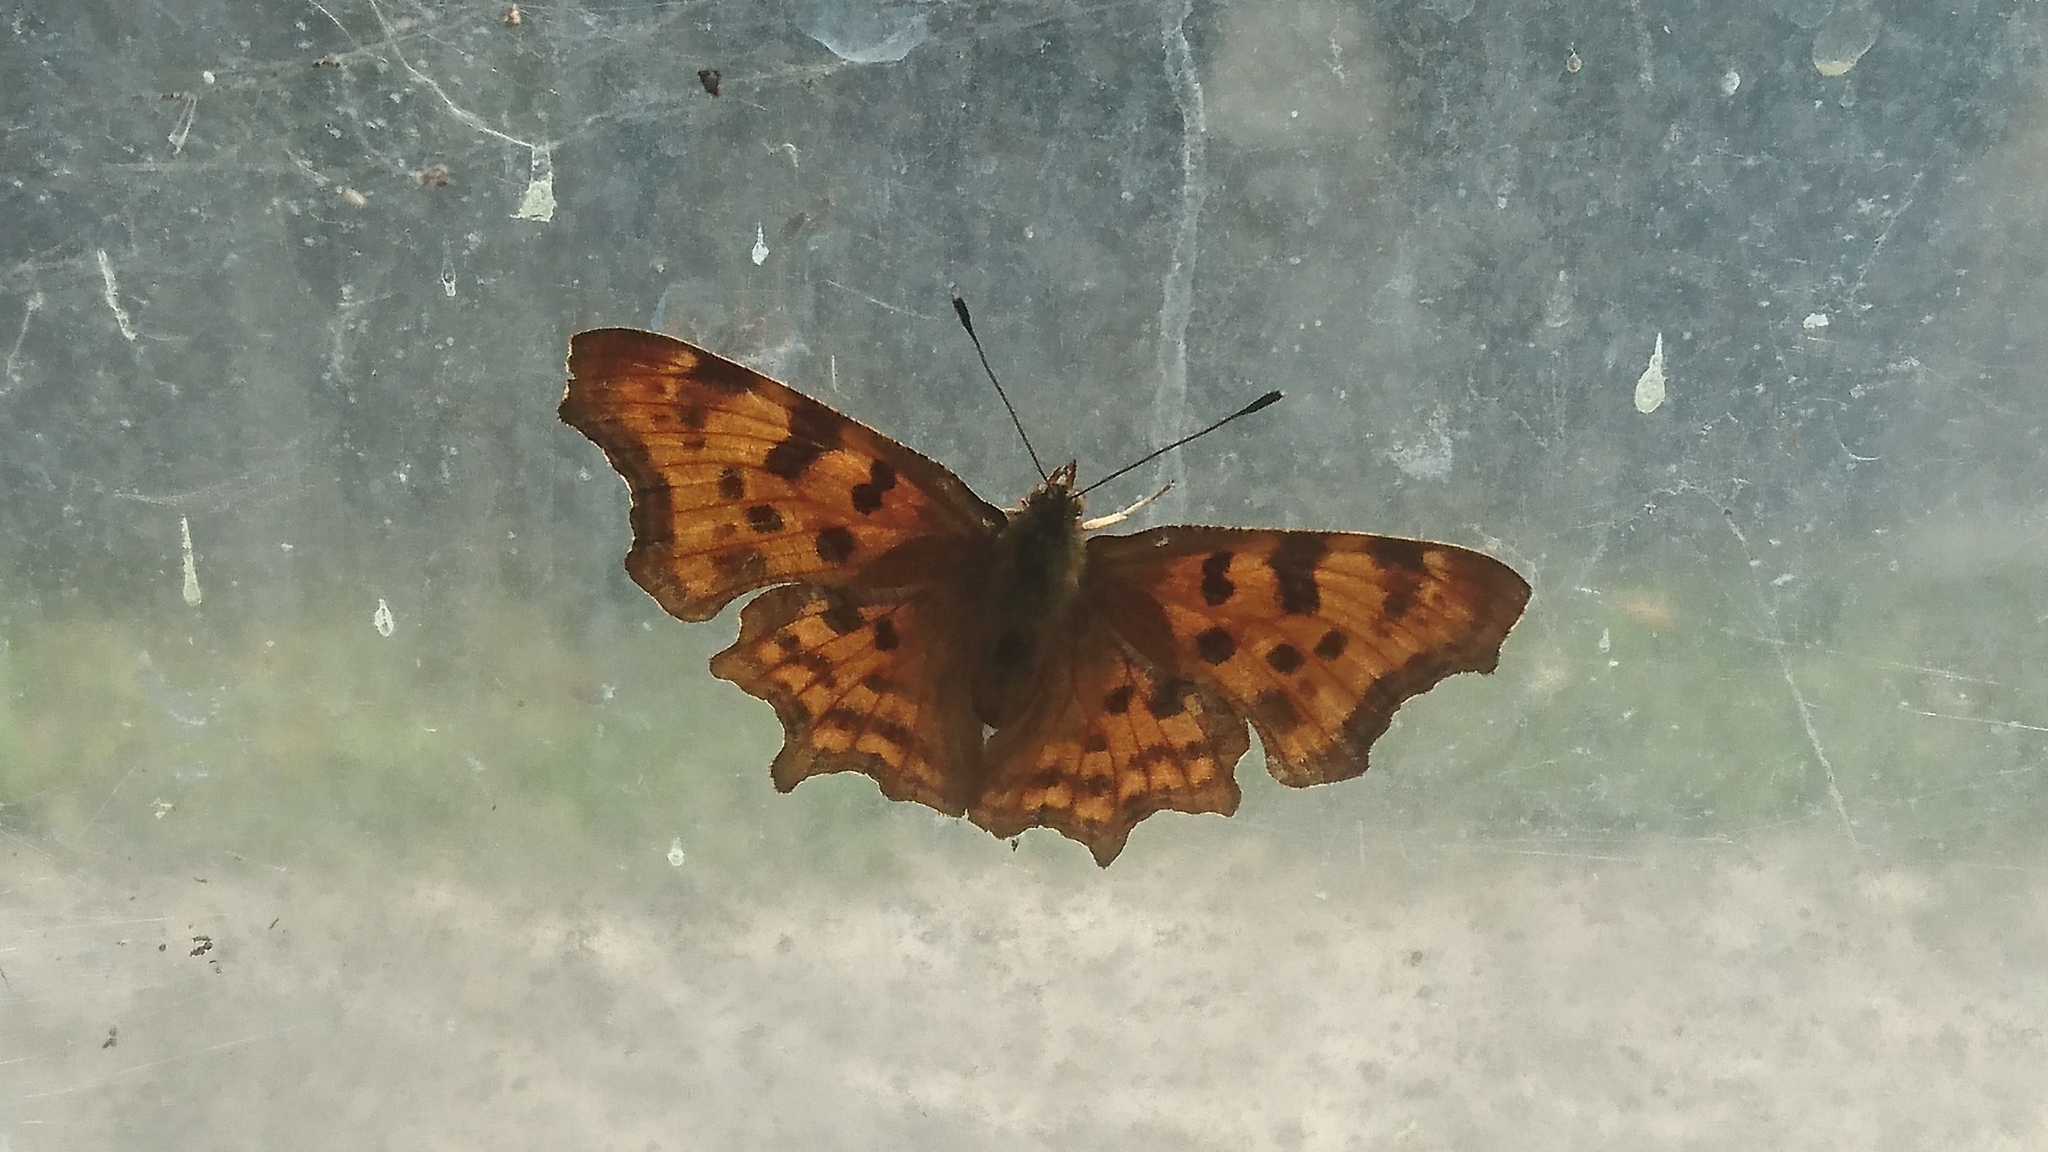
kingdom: Animalia
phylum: Arthropoda
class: Insecta
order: Lepidoptera
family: Nymphalidae
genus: Polygonia
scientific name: Polygonia c-album
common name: Comma
